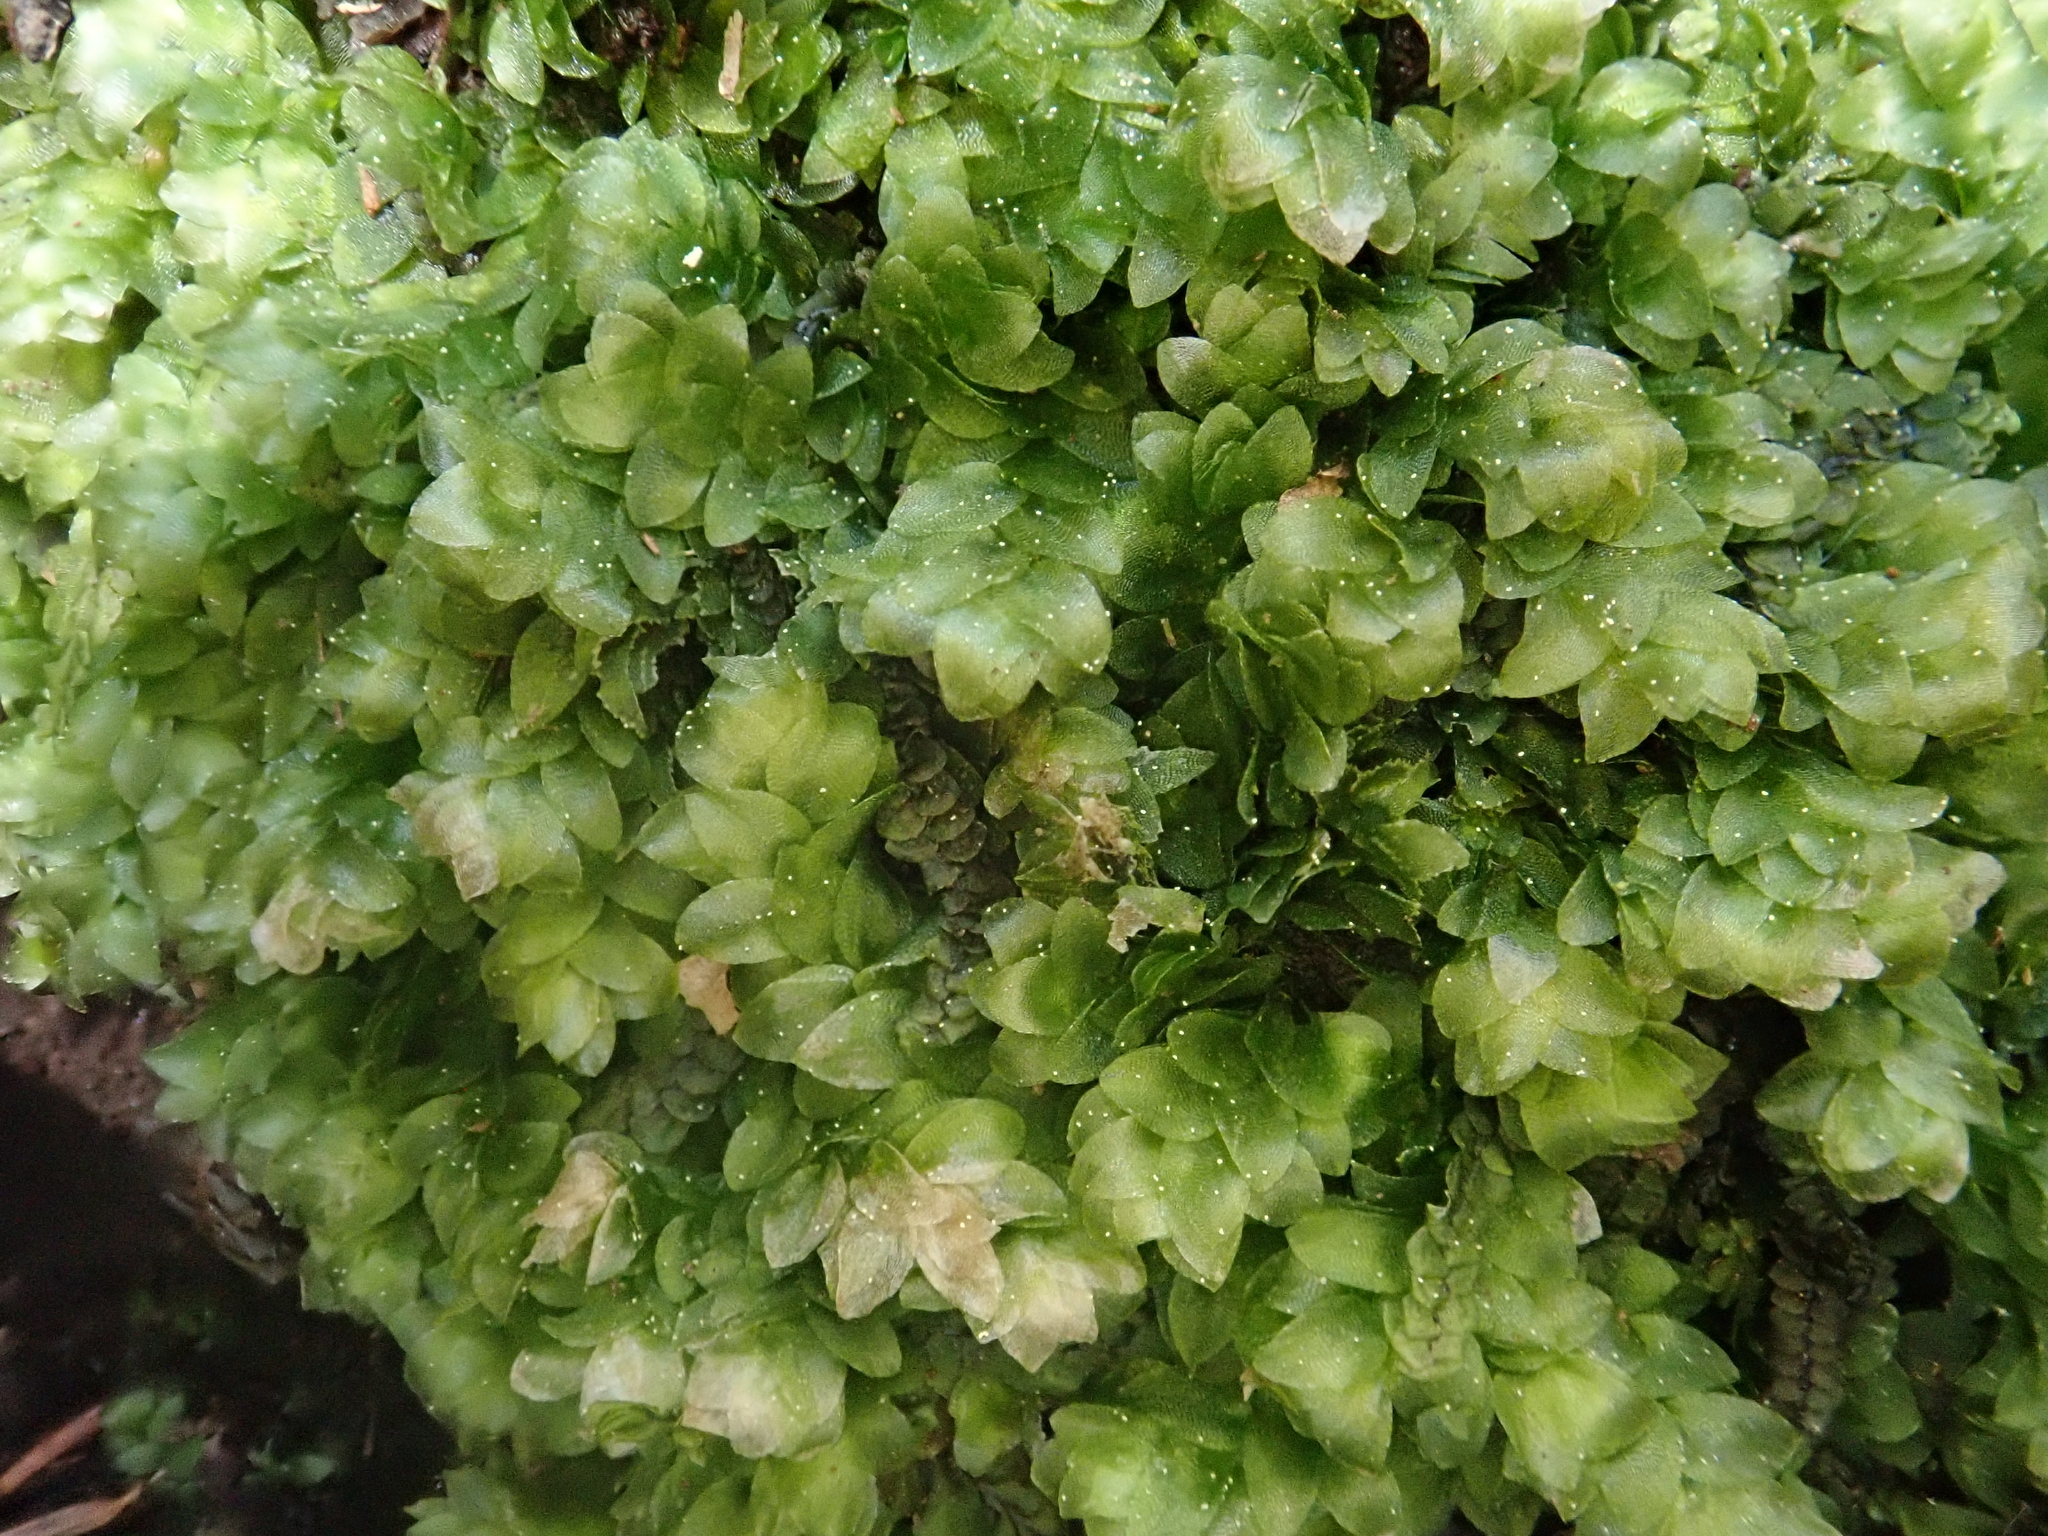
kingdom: Plantae
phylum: Bryophyta
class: Bryopsida
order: Hookeriales
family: Hookeriaceae
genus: Hookeria
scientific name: Hookeria lucens
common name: Shining hookeria
